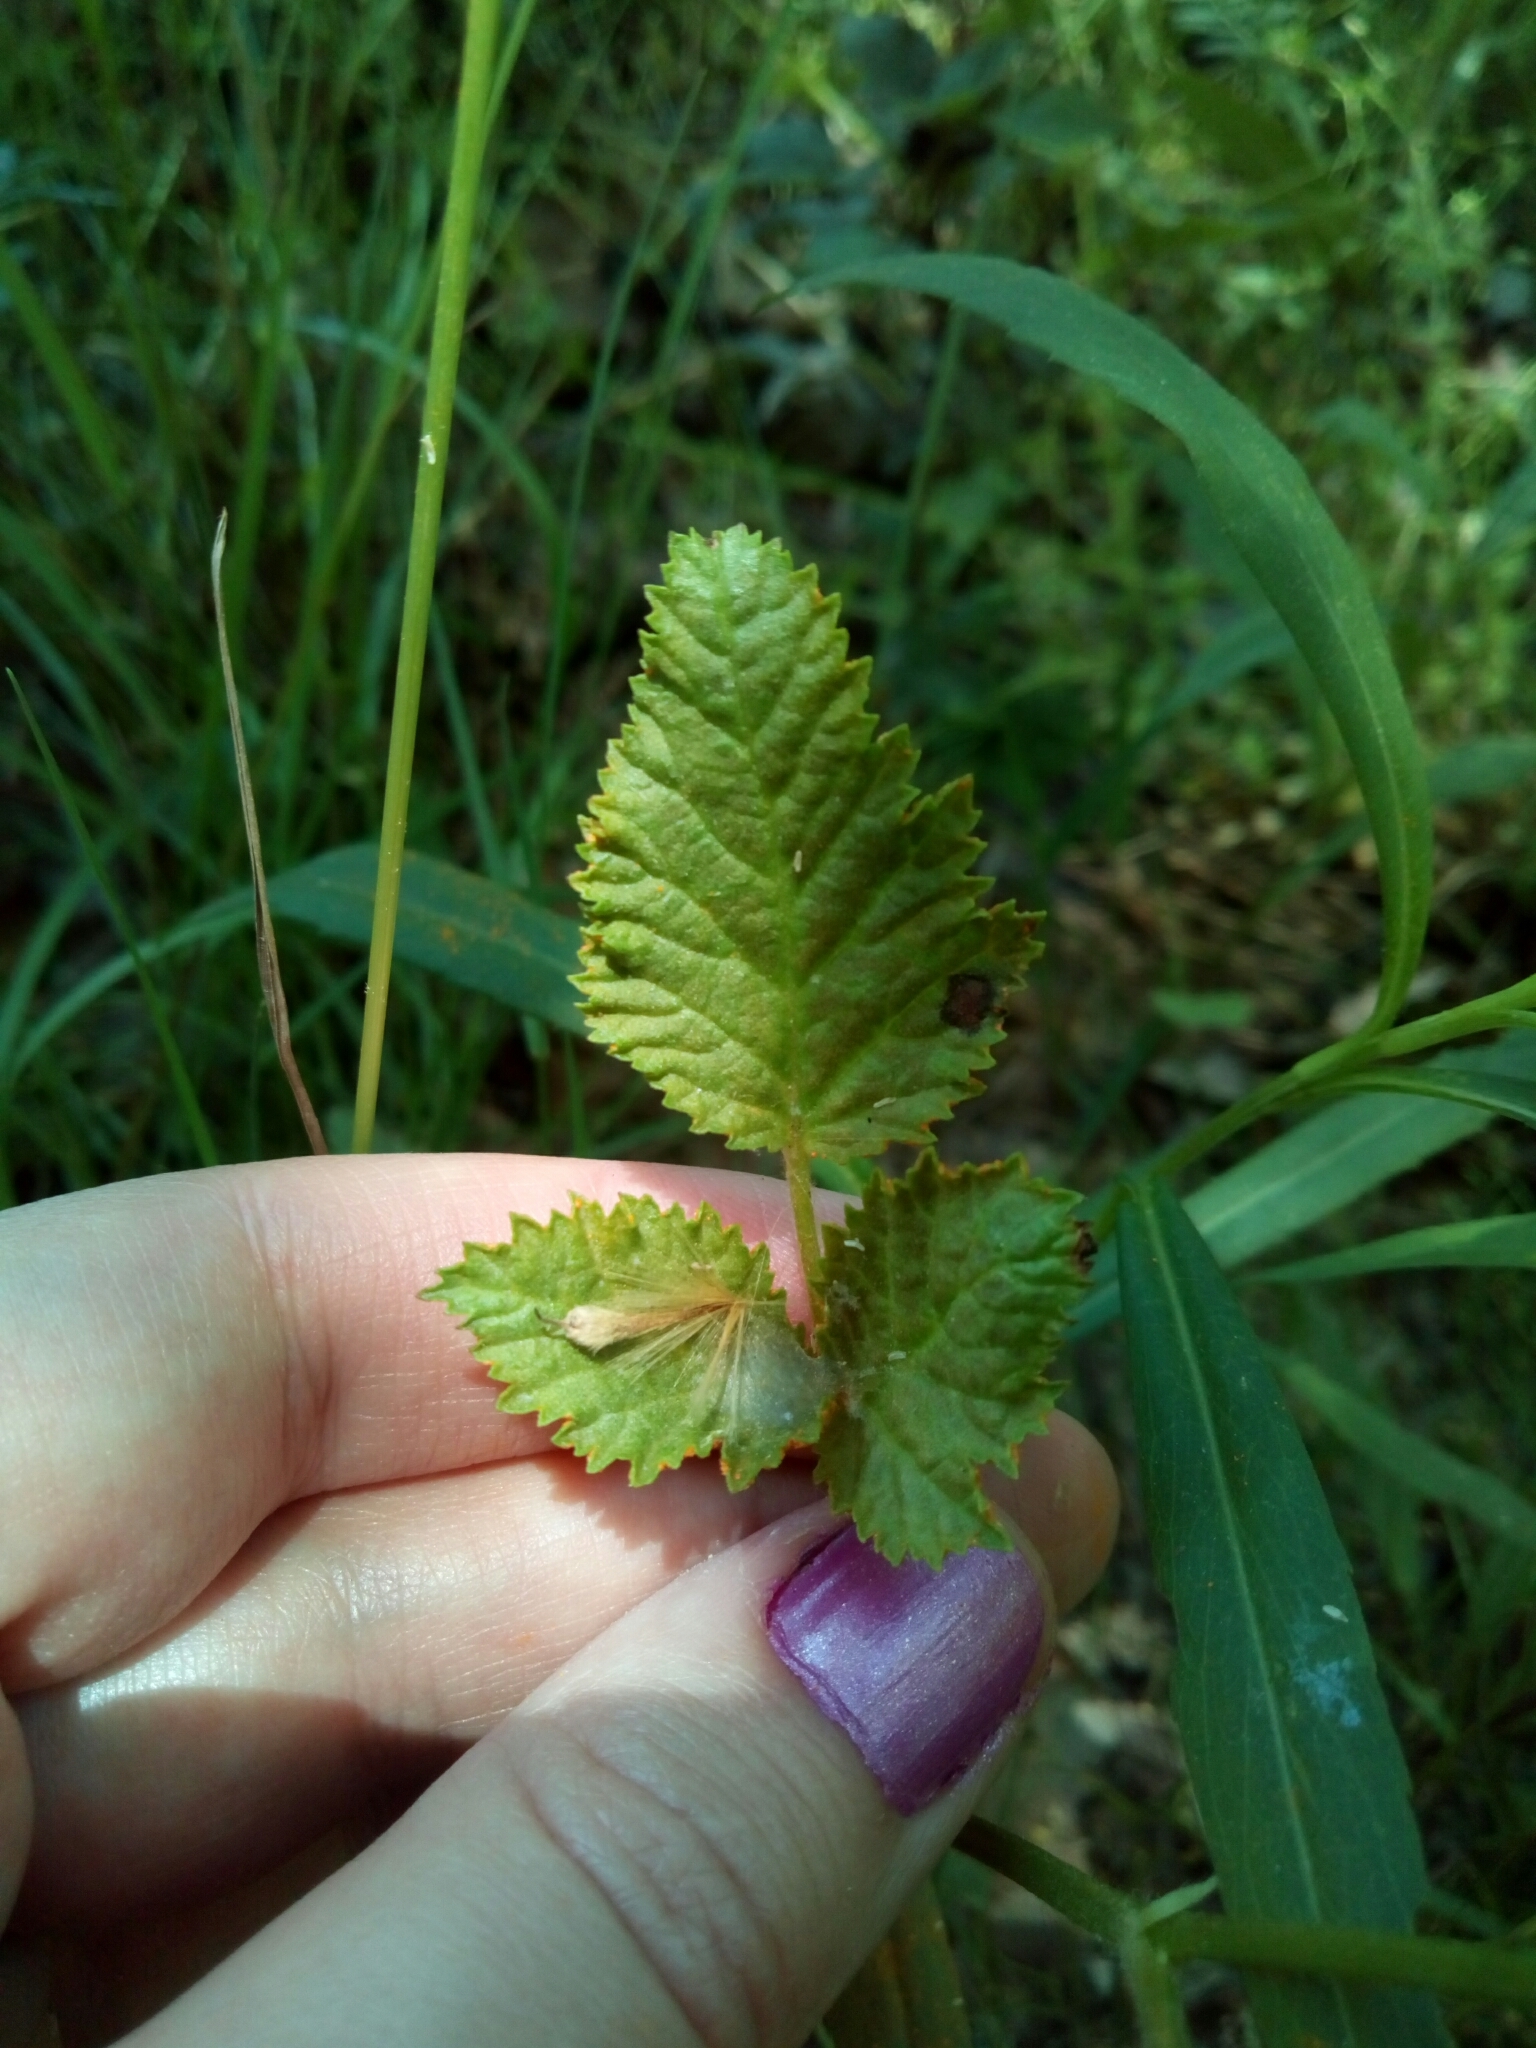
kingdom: Fungi
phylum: Basidiomycota
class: Pucciniomycetes
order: Pucciniales
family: Phragmidiaceae
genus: Arthuriomyces
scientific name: Arthuriomyces peckianus
